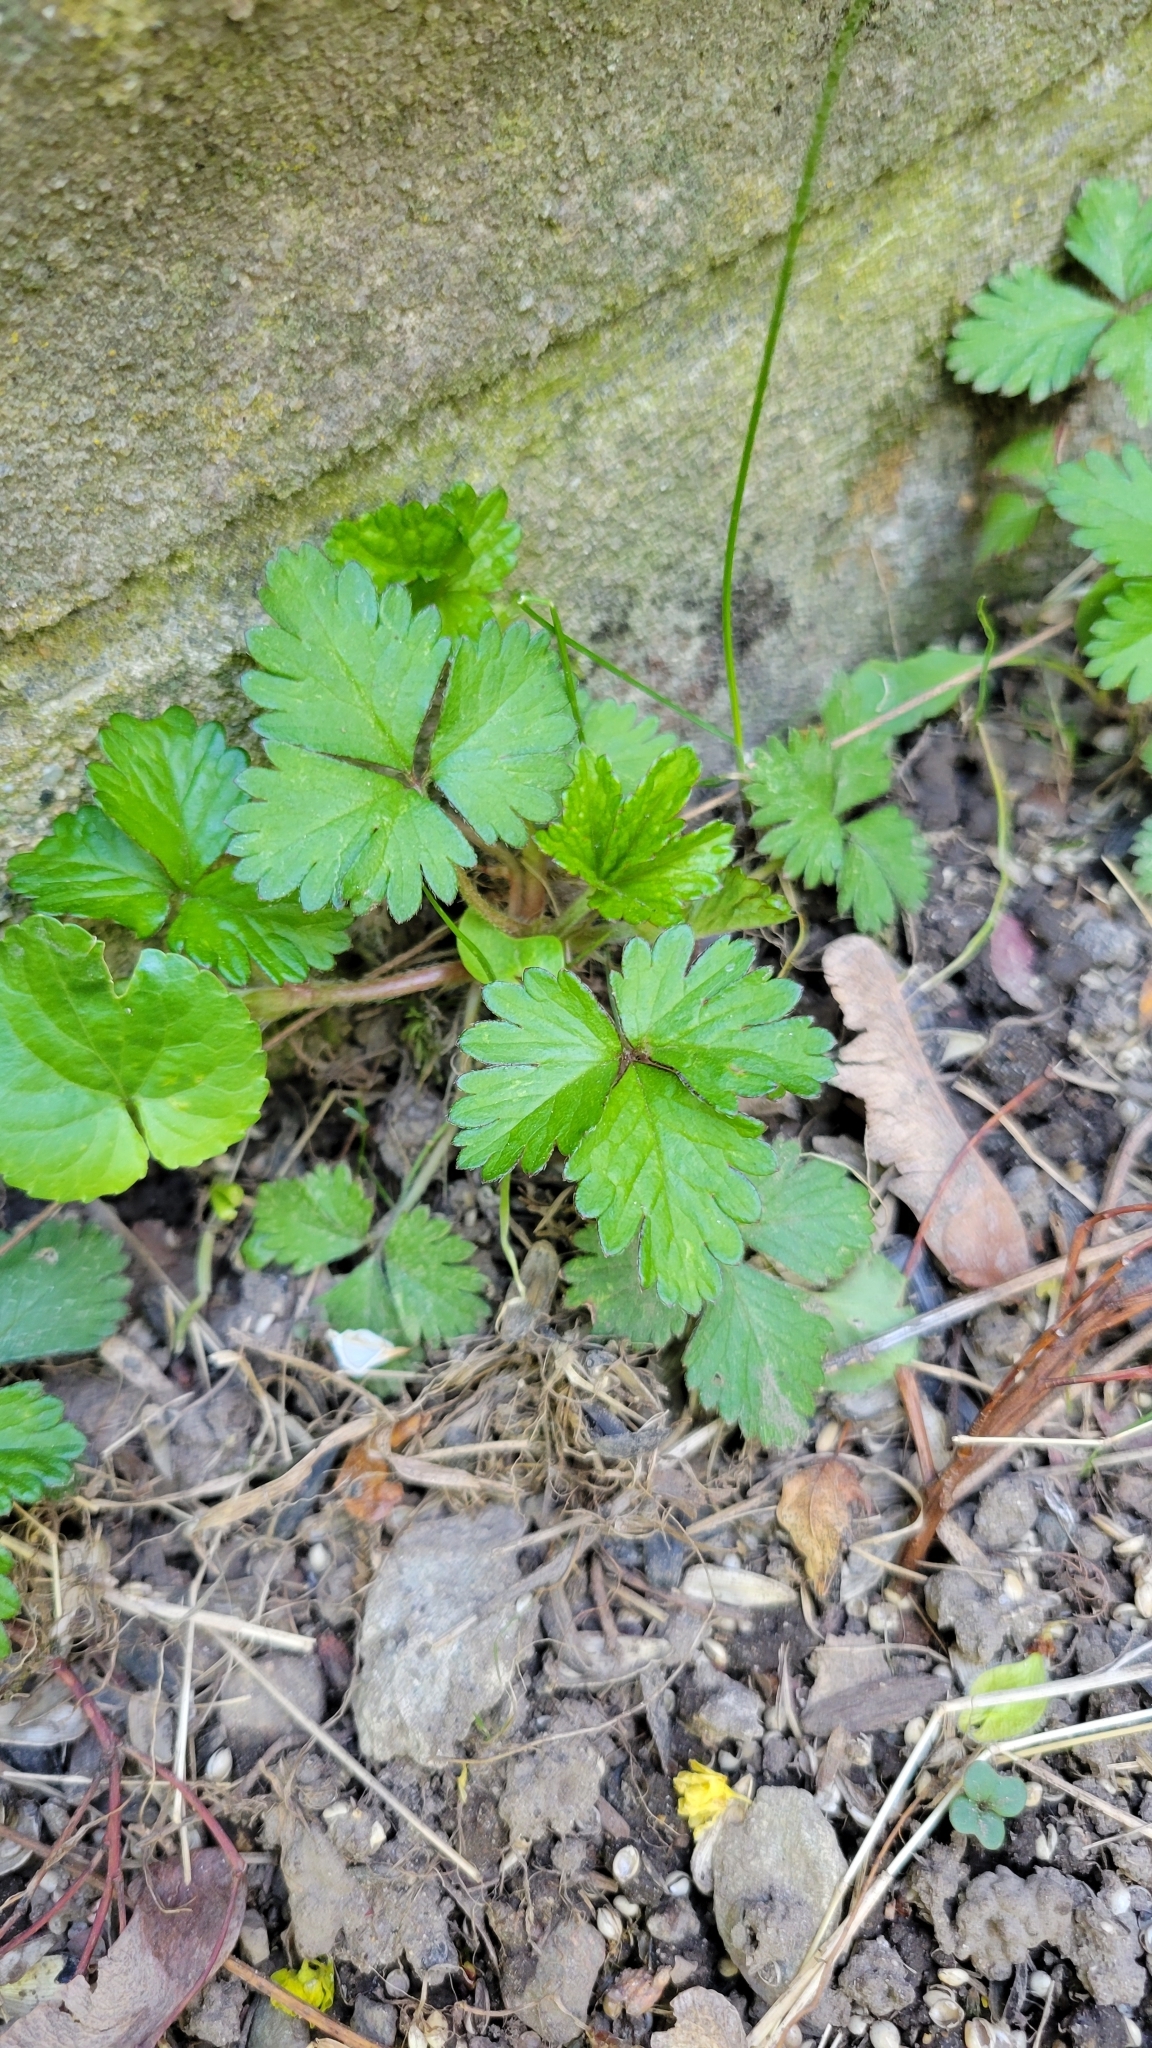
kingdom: Plantae
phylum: Tracheophyta
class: Magnoliopsida
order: Rosales
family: Rosaceae
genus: Potentilla
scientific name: Potentilla indica
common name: Yellow-flowered strawberry
